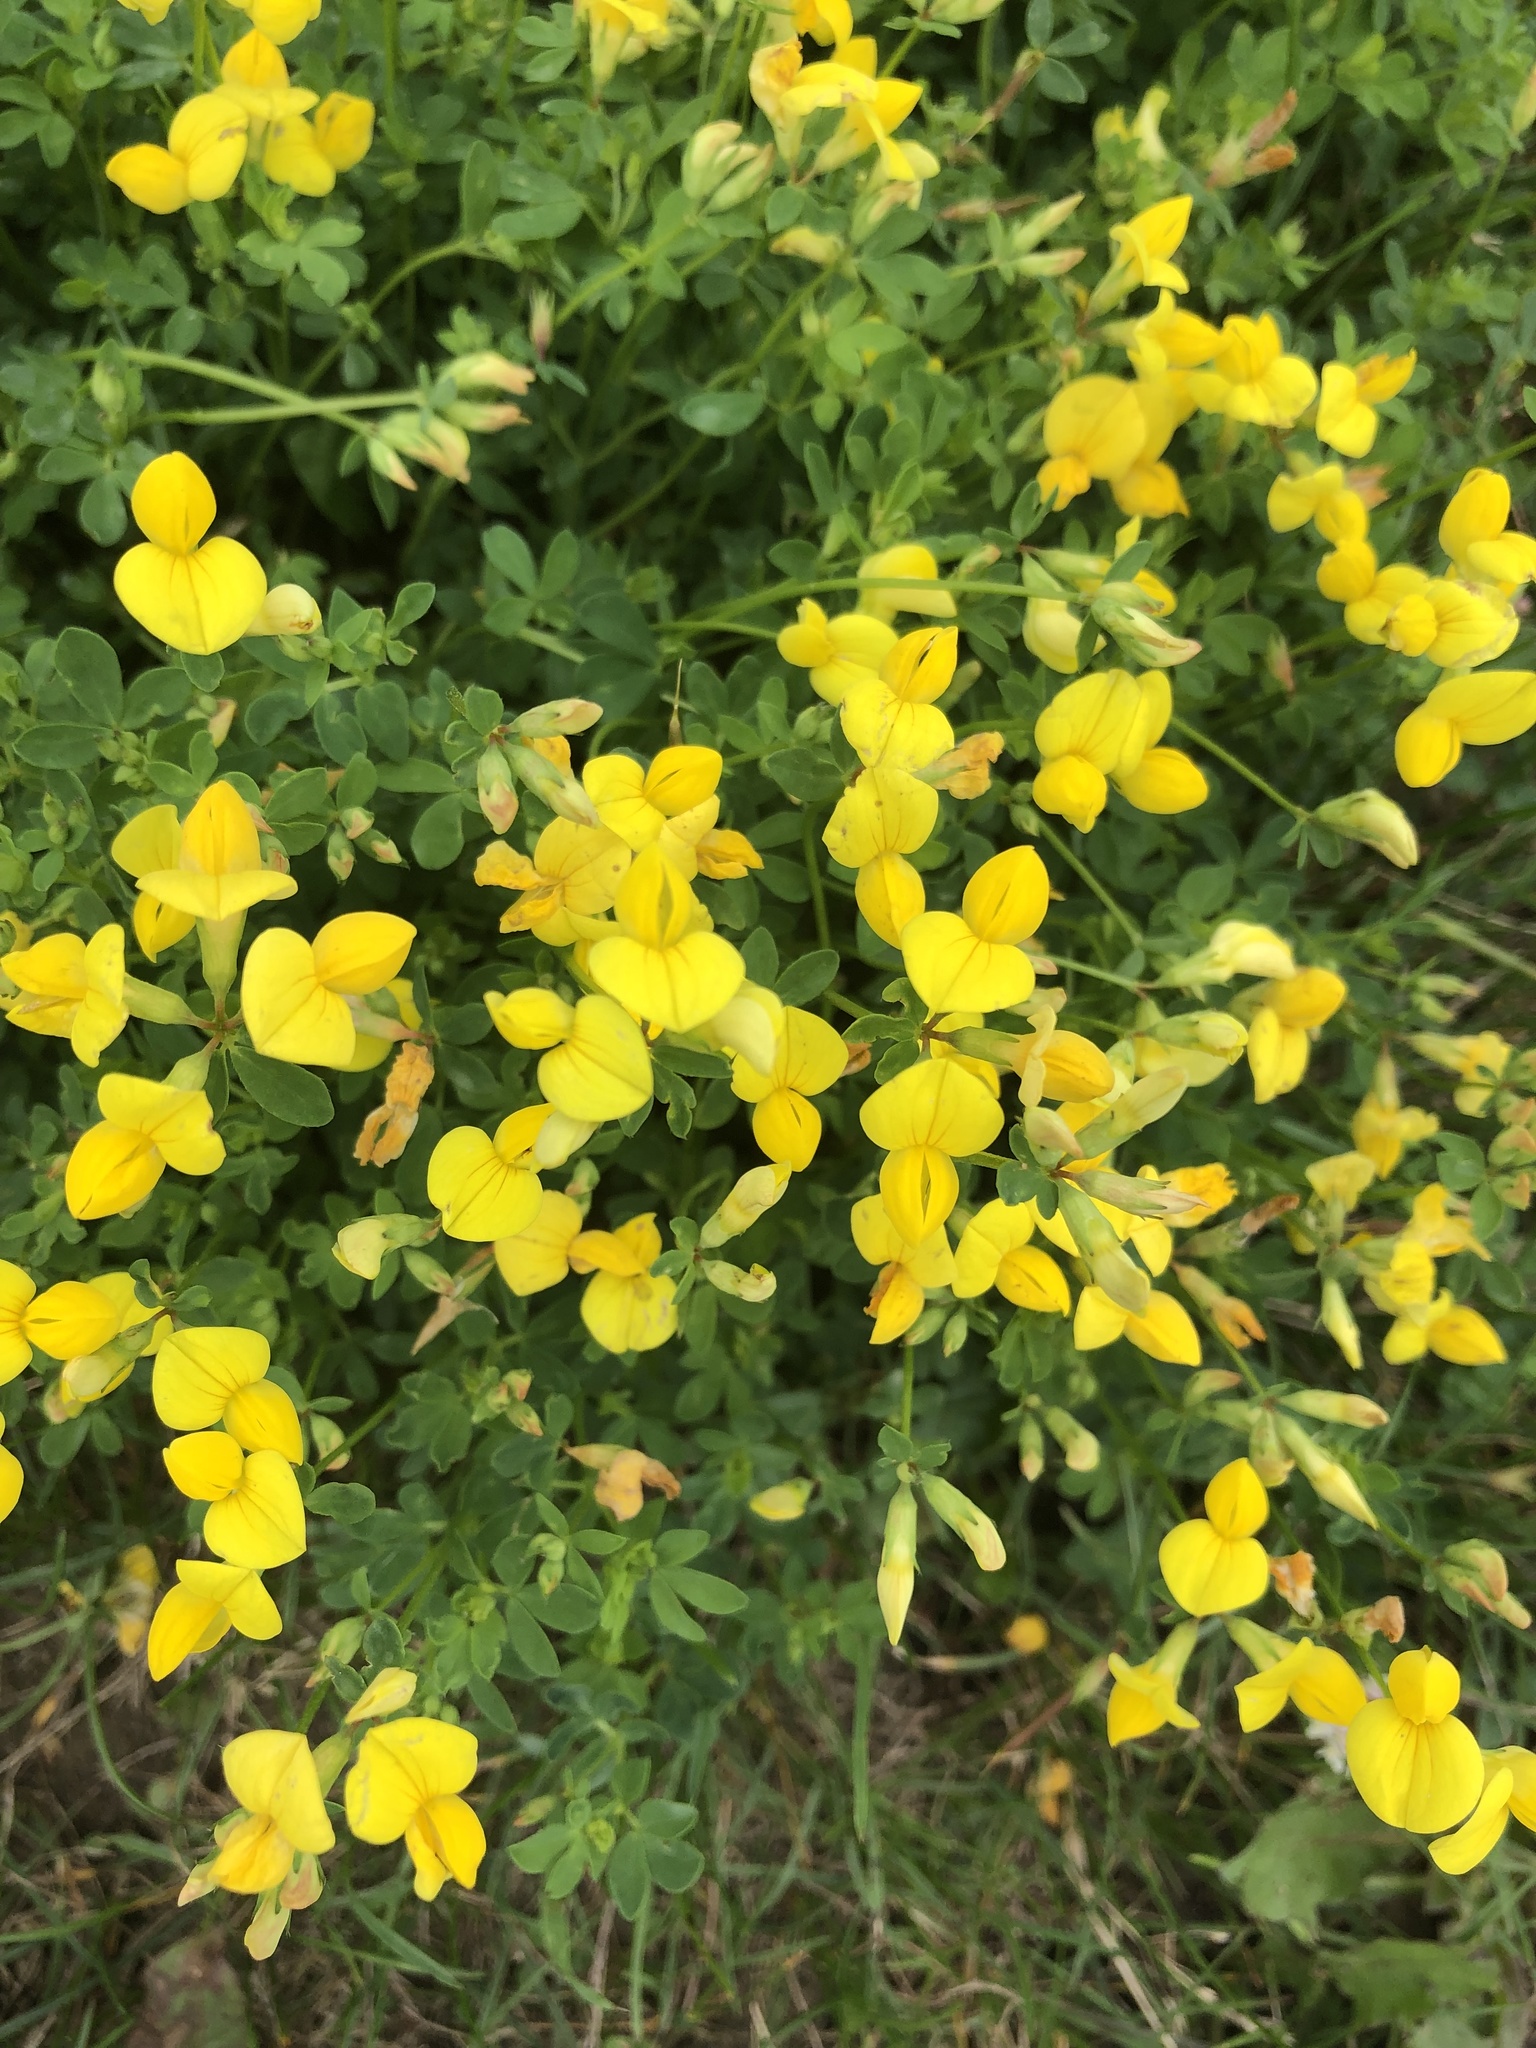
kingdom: Plantae
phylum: Tracheophyta
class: Magnoliopsida
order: Fabales
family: Fabaceae
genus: Lotus
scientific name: Lotus corniculatus
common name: Common bird's-foot-trefoil
